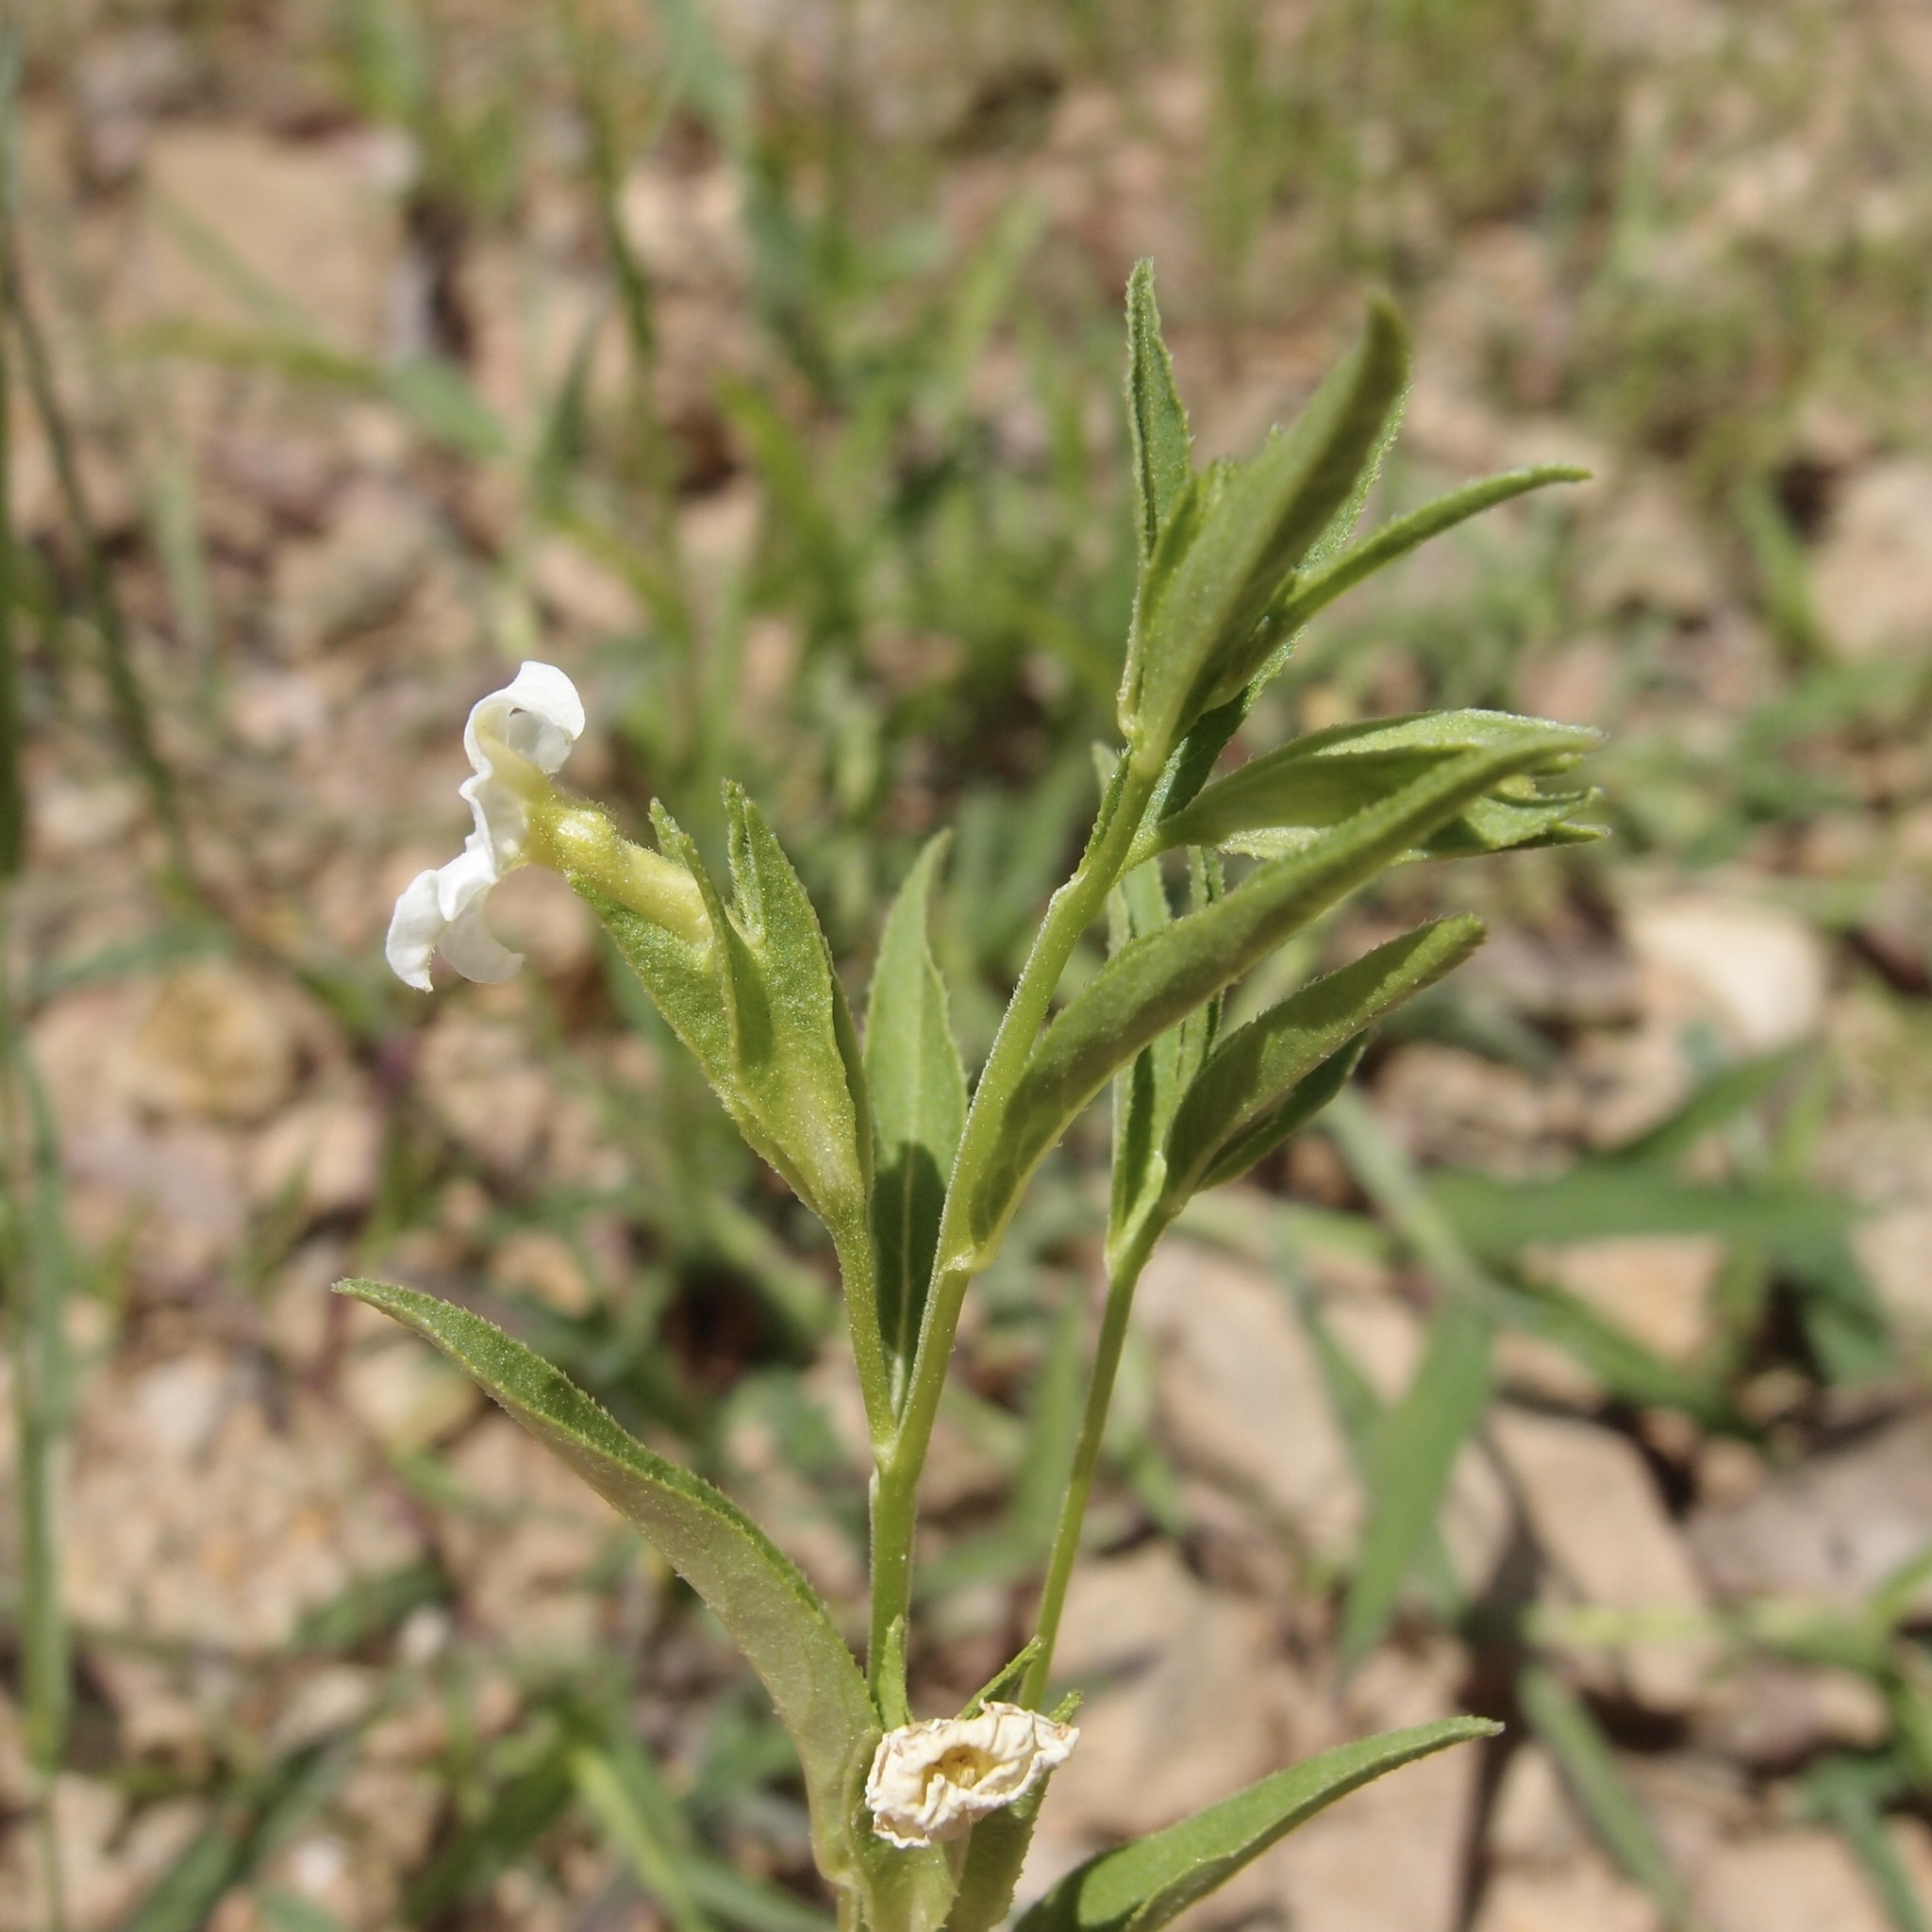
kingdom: Plantae
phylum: Tracheophyta
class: Magnoliopsida
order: Solanales
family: Solanaceae
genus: Browallia
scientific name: Browallia eludens
